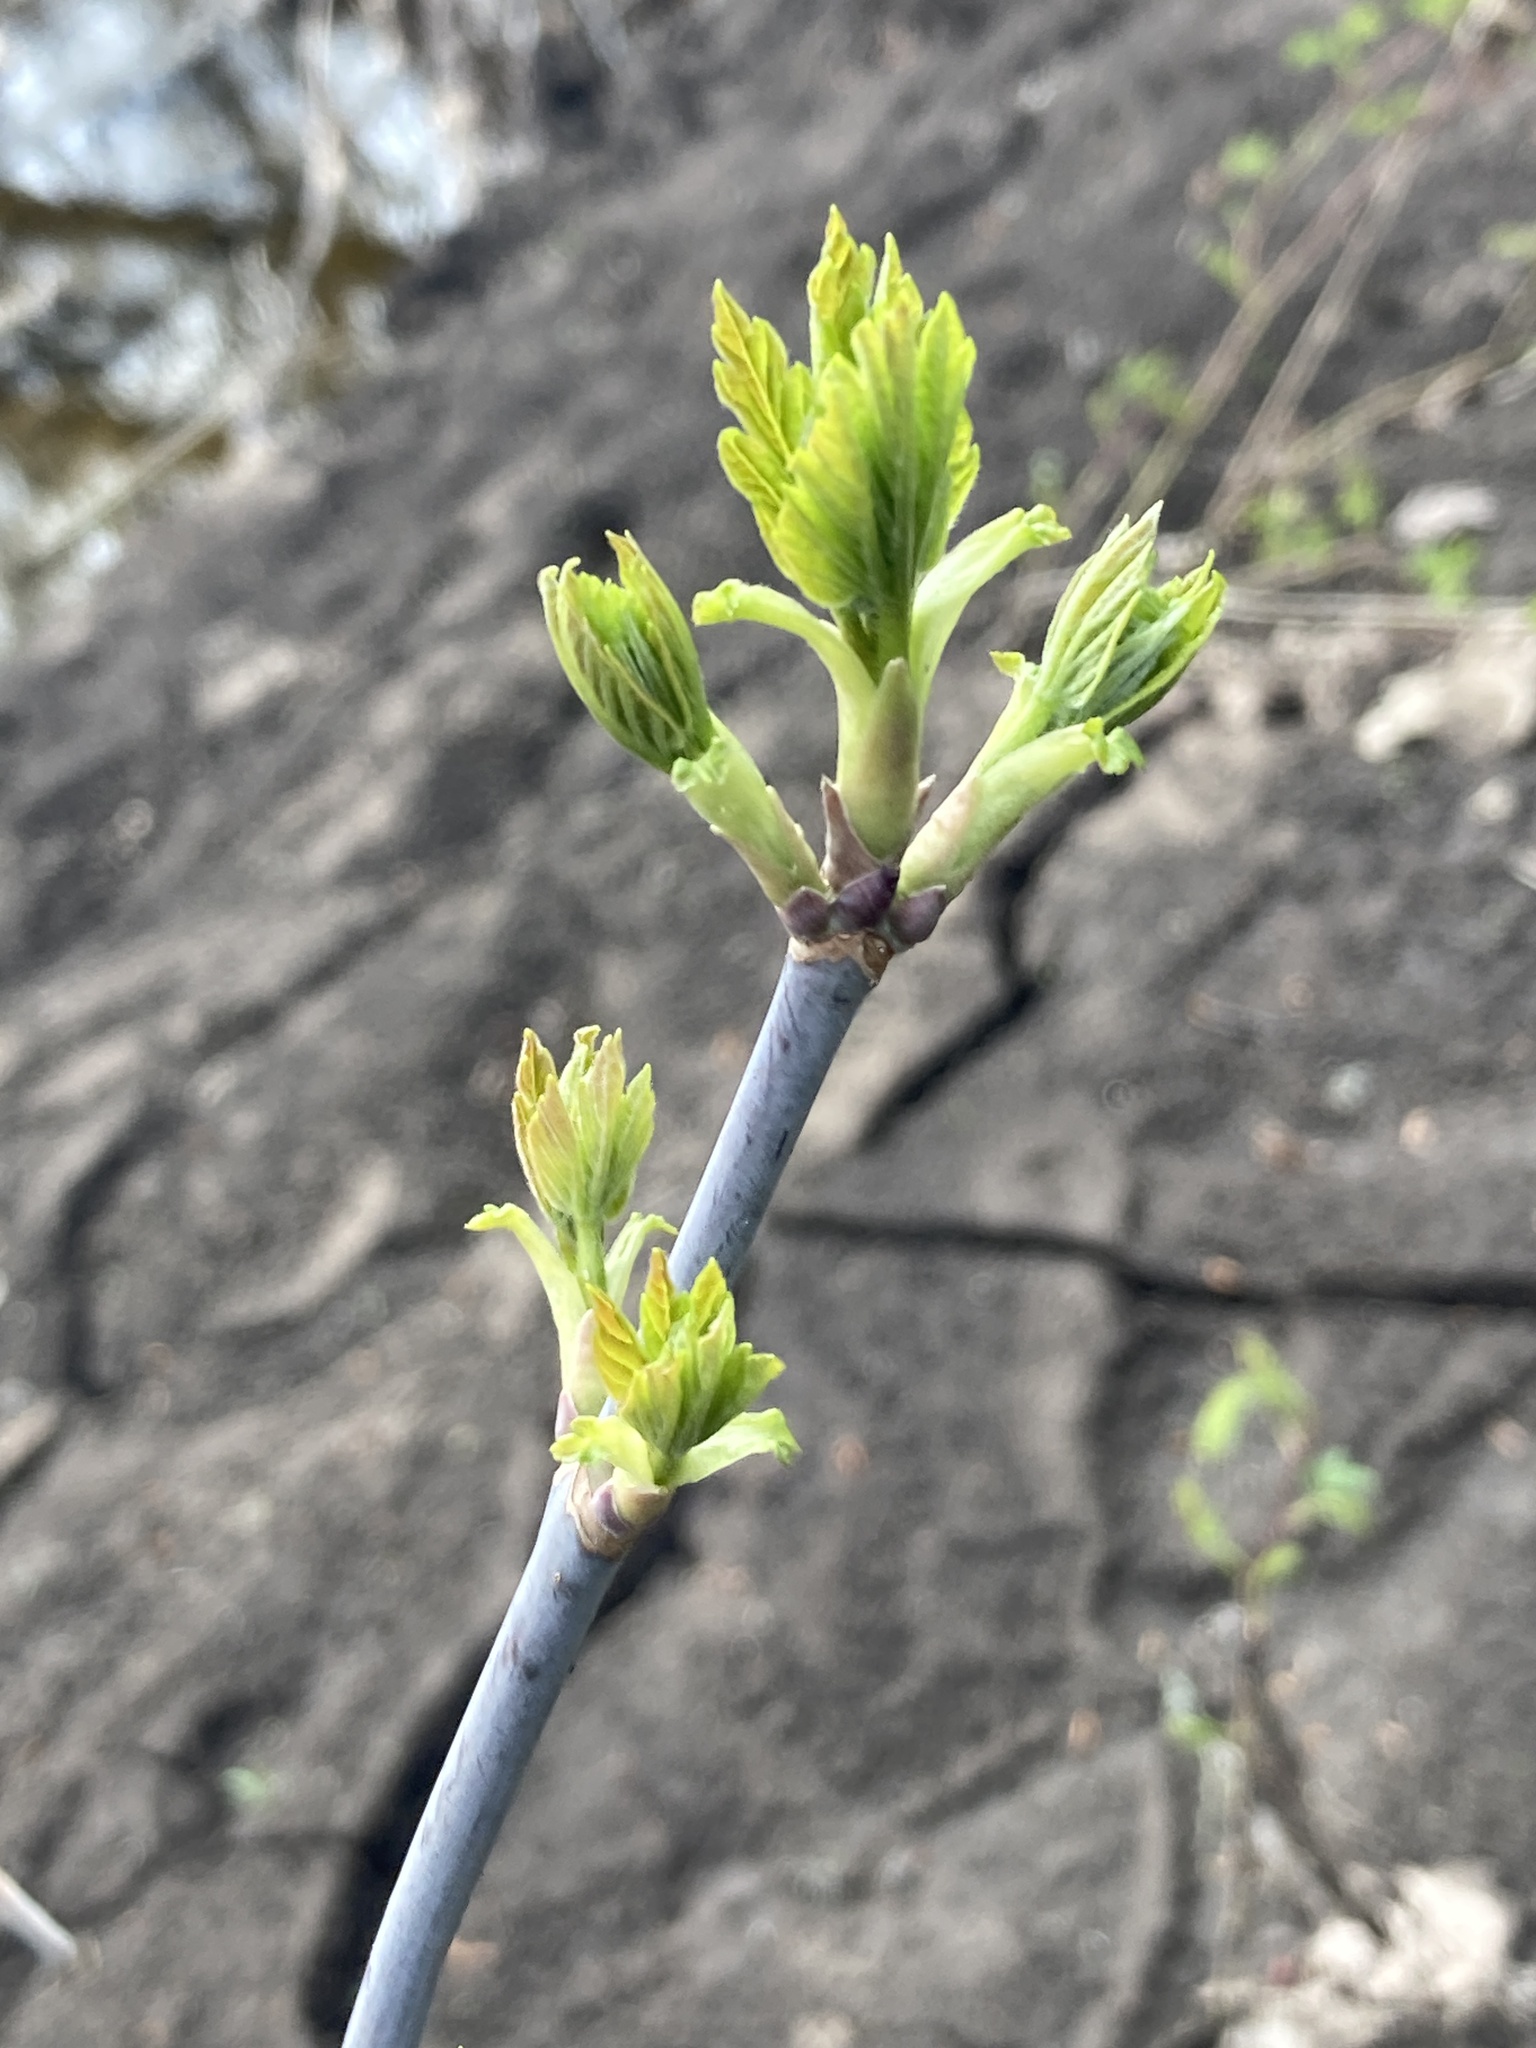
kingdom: Plantae
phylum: Tracheophyta
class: Magnoliopsida
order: Sapindales
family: Sapindaceae
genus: Acer
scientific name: Acer negundo
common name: Ashleaf maple
